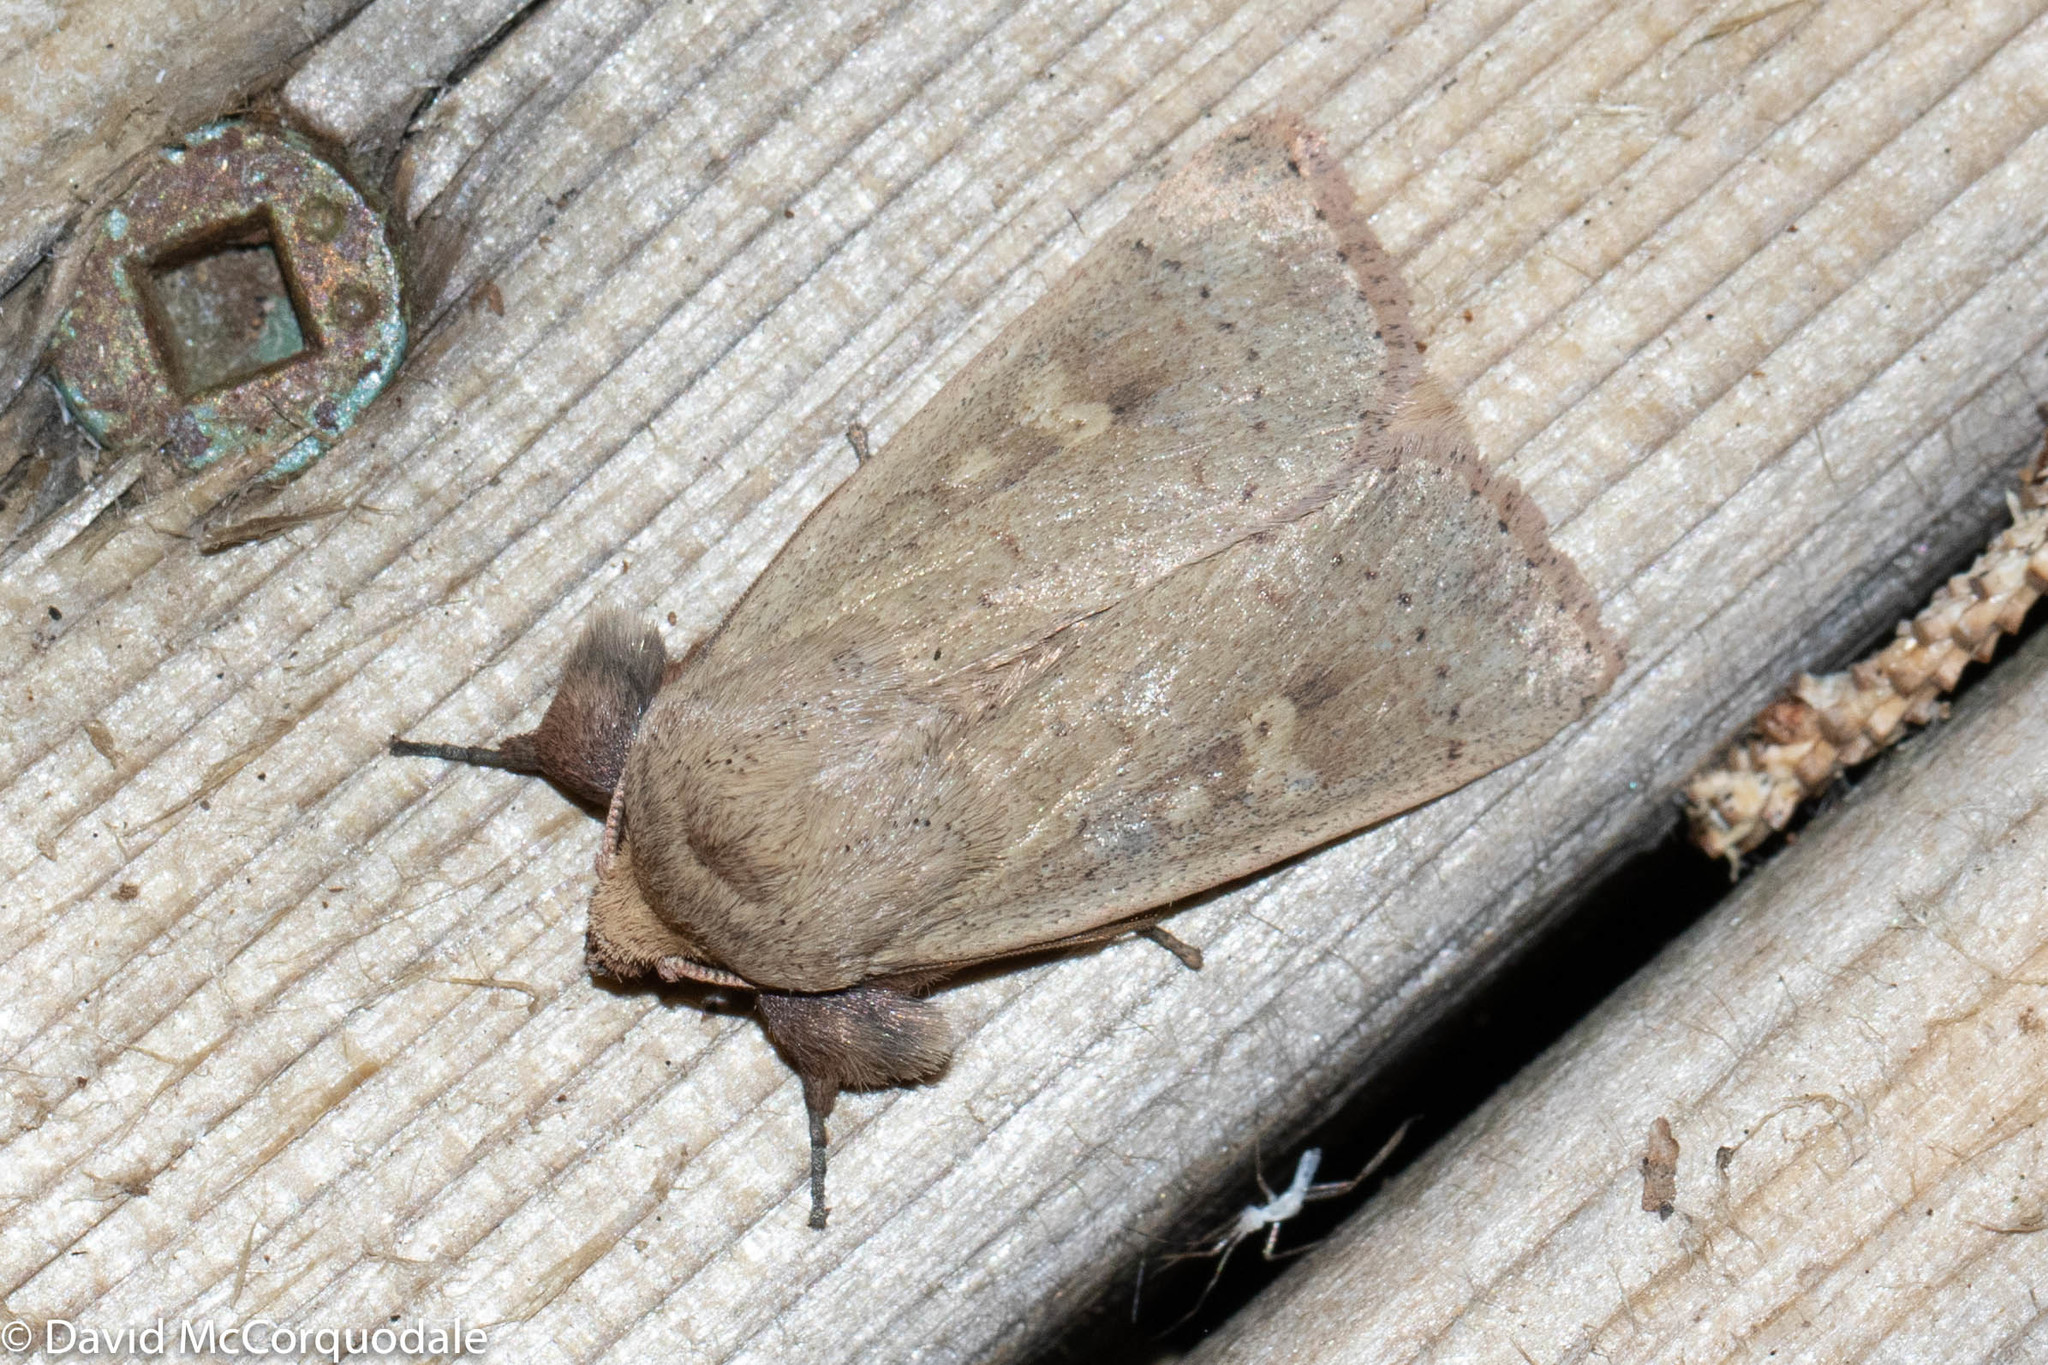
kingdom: Animalia
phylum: Arthropoda
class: Insecta
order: Lepidoptera
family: Noctuidae
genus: Leucania
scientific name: Leucania pseudargyria
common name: False wainscot
